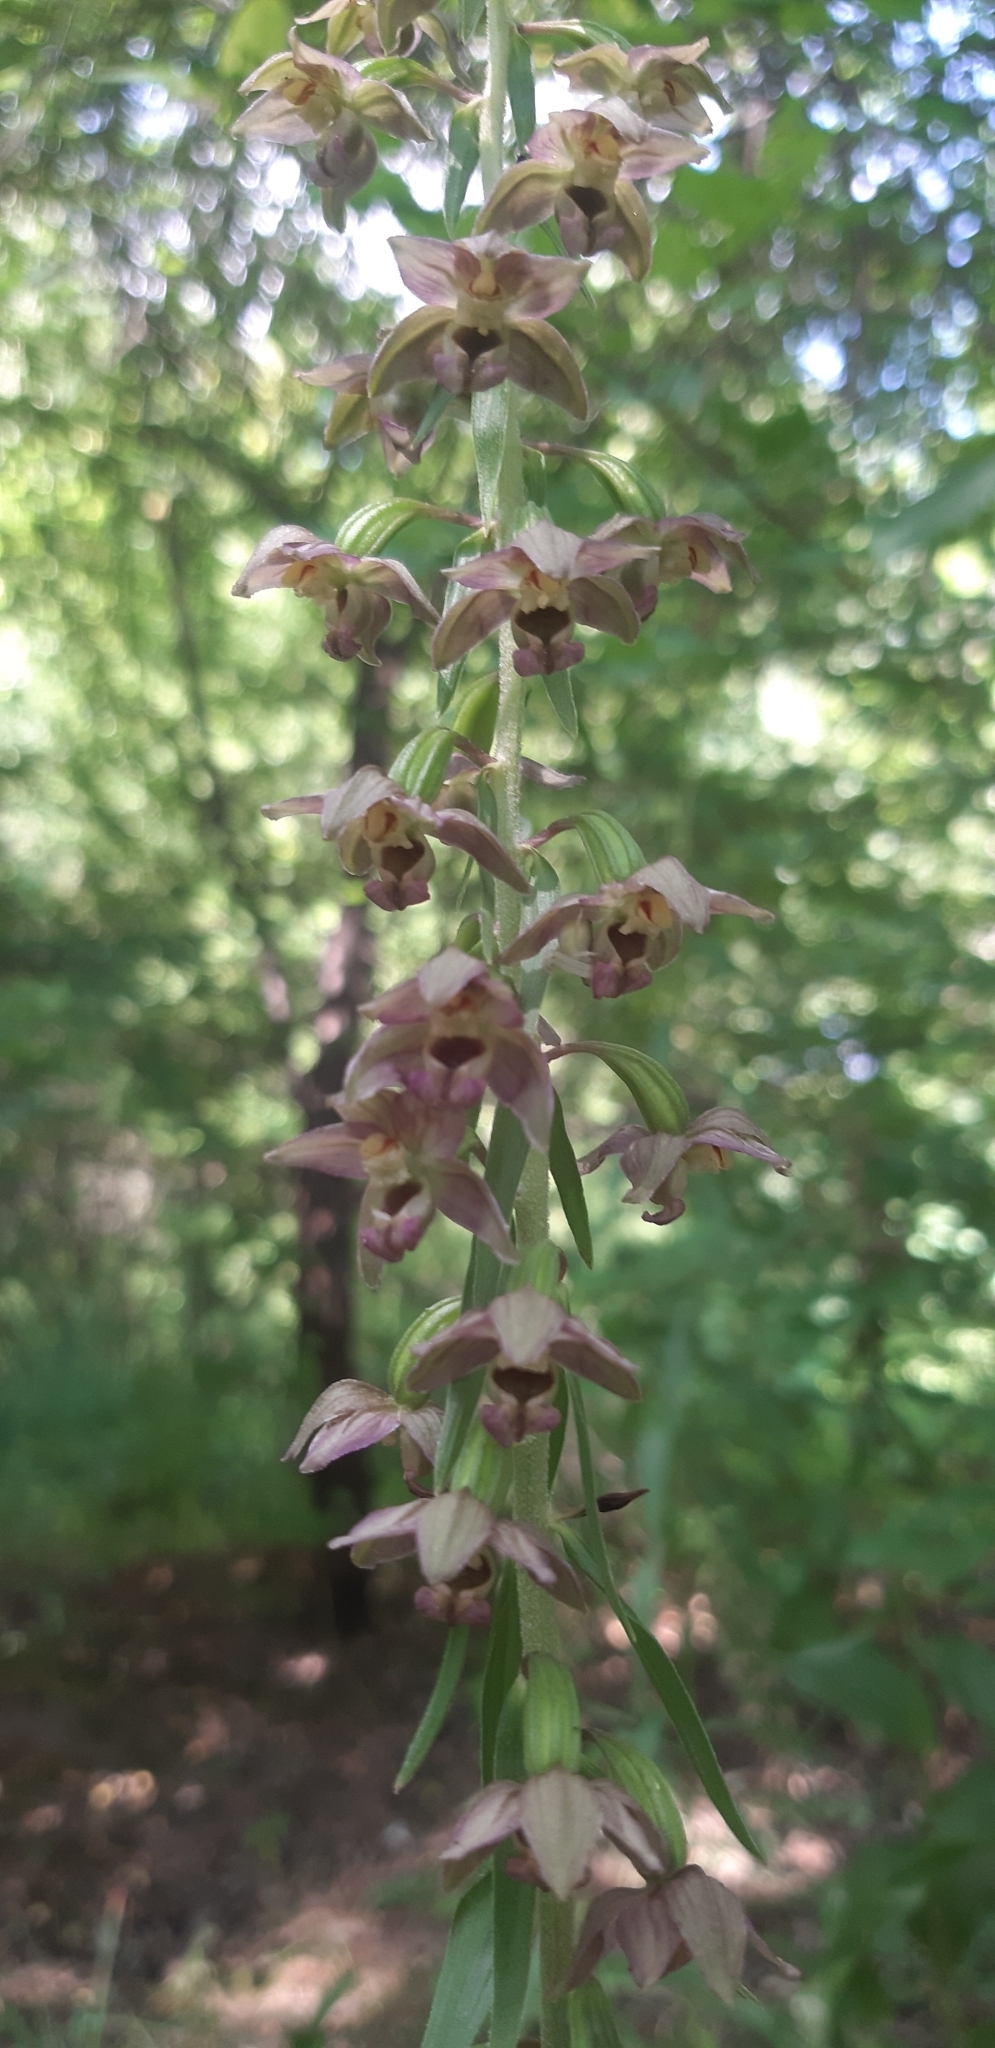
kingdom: Plantae
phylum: Tracheophyta
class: Liliopsida
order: Asparagales
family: Orchidaceae
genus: Epipactis
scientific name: Epipactis helleborine
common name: Broad-leaved helleborine
